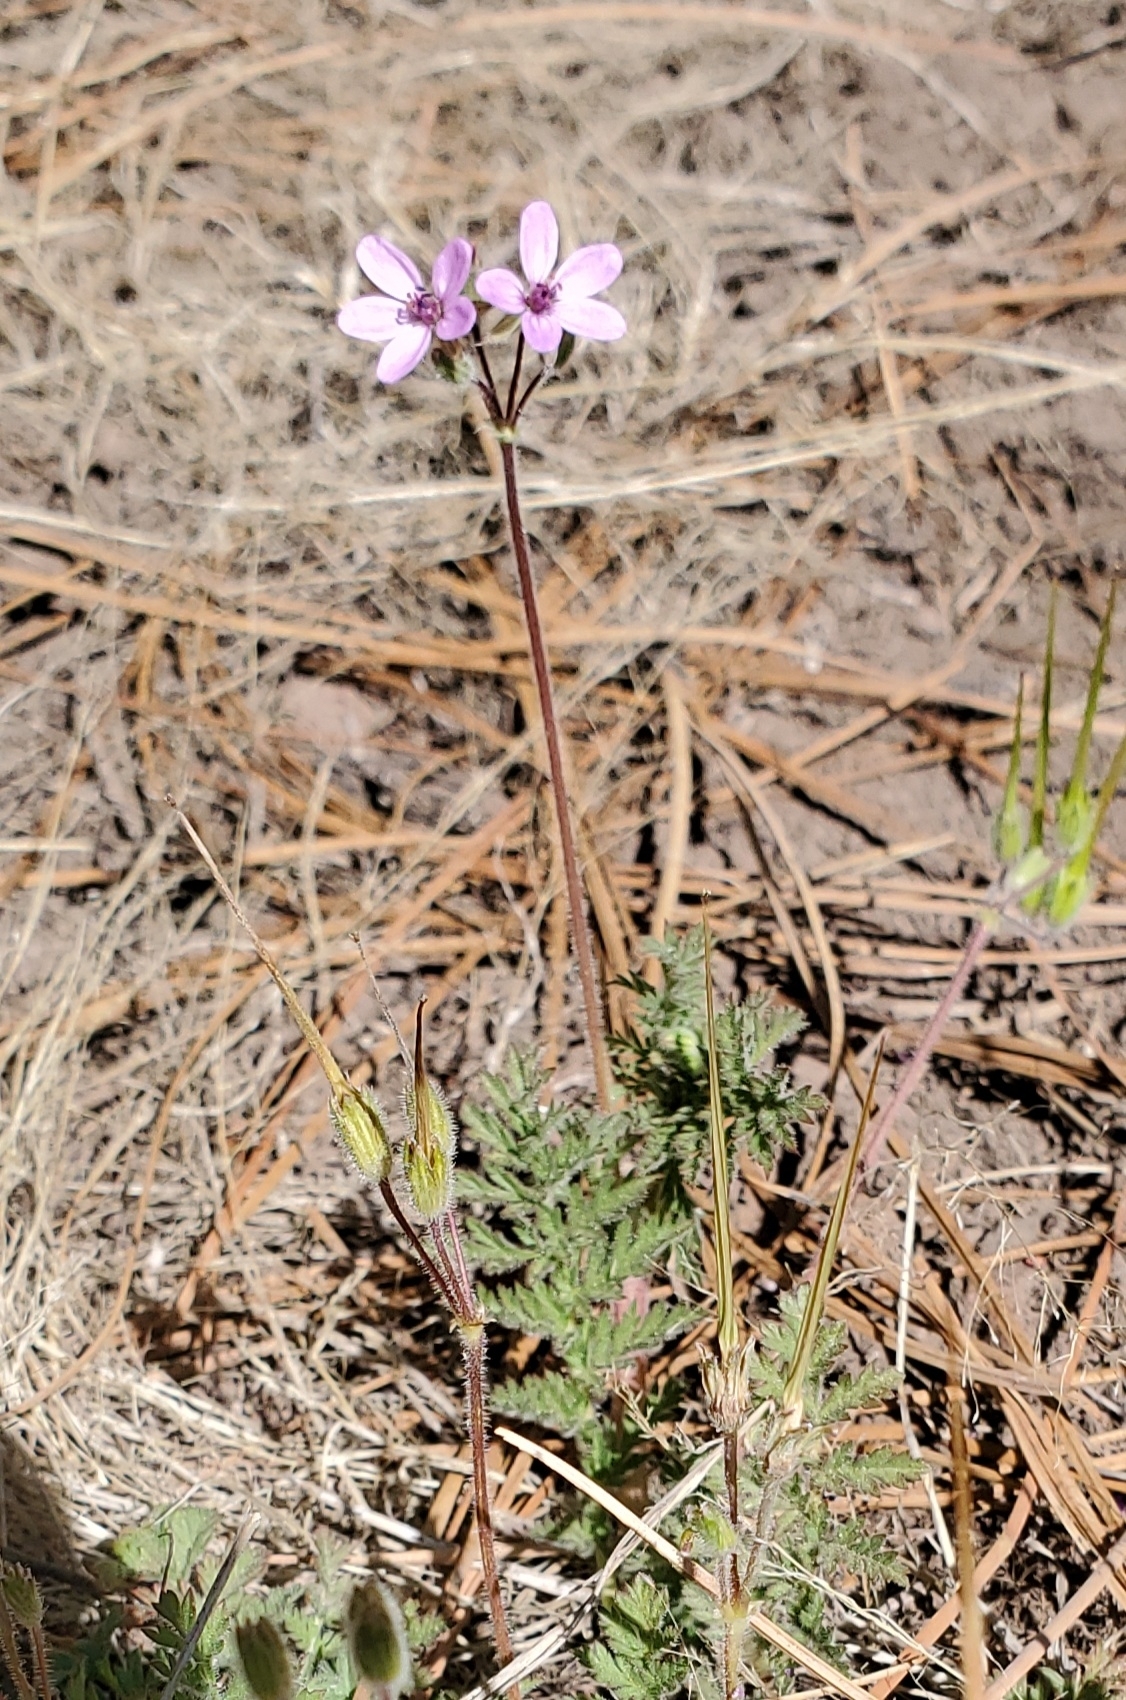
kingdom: Plantae
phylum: Tracheophyta
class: Magnoliopsida
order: Geraniales
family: Geraniaceae
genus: Erodium
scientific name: Erodium cicutarium
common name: Common stork's-bill
